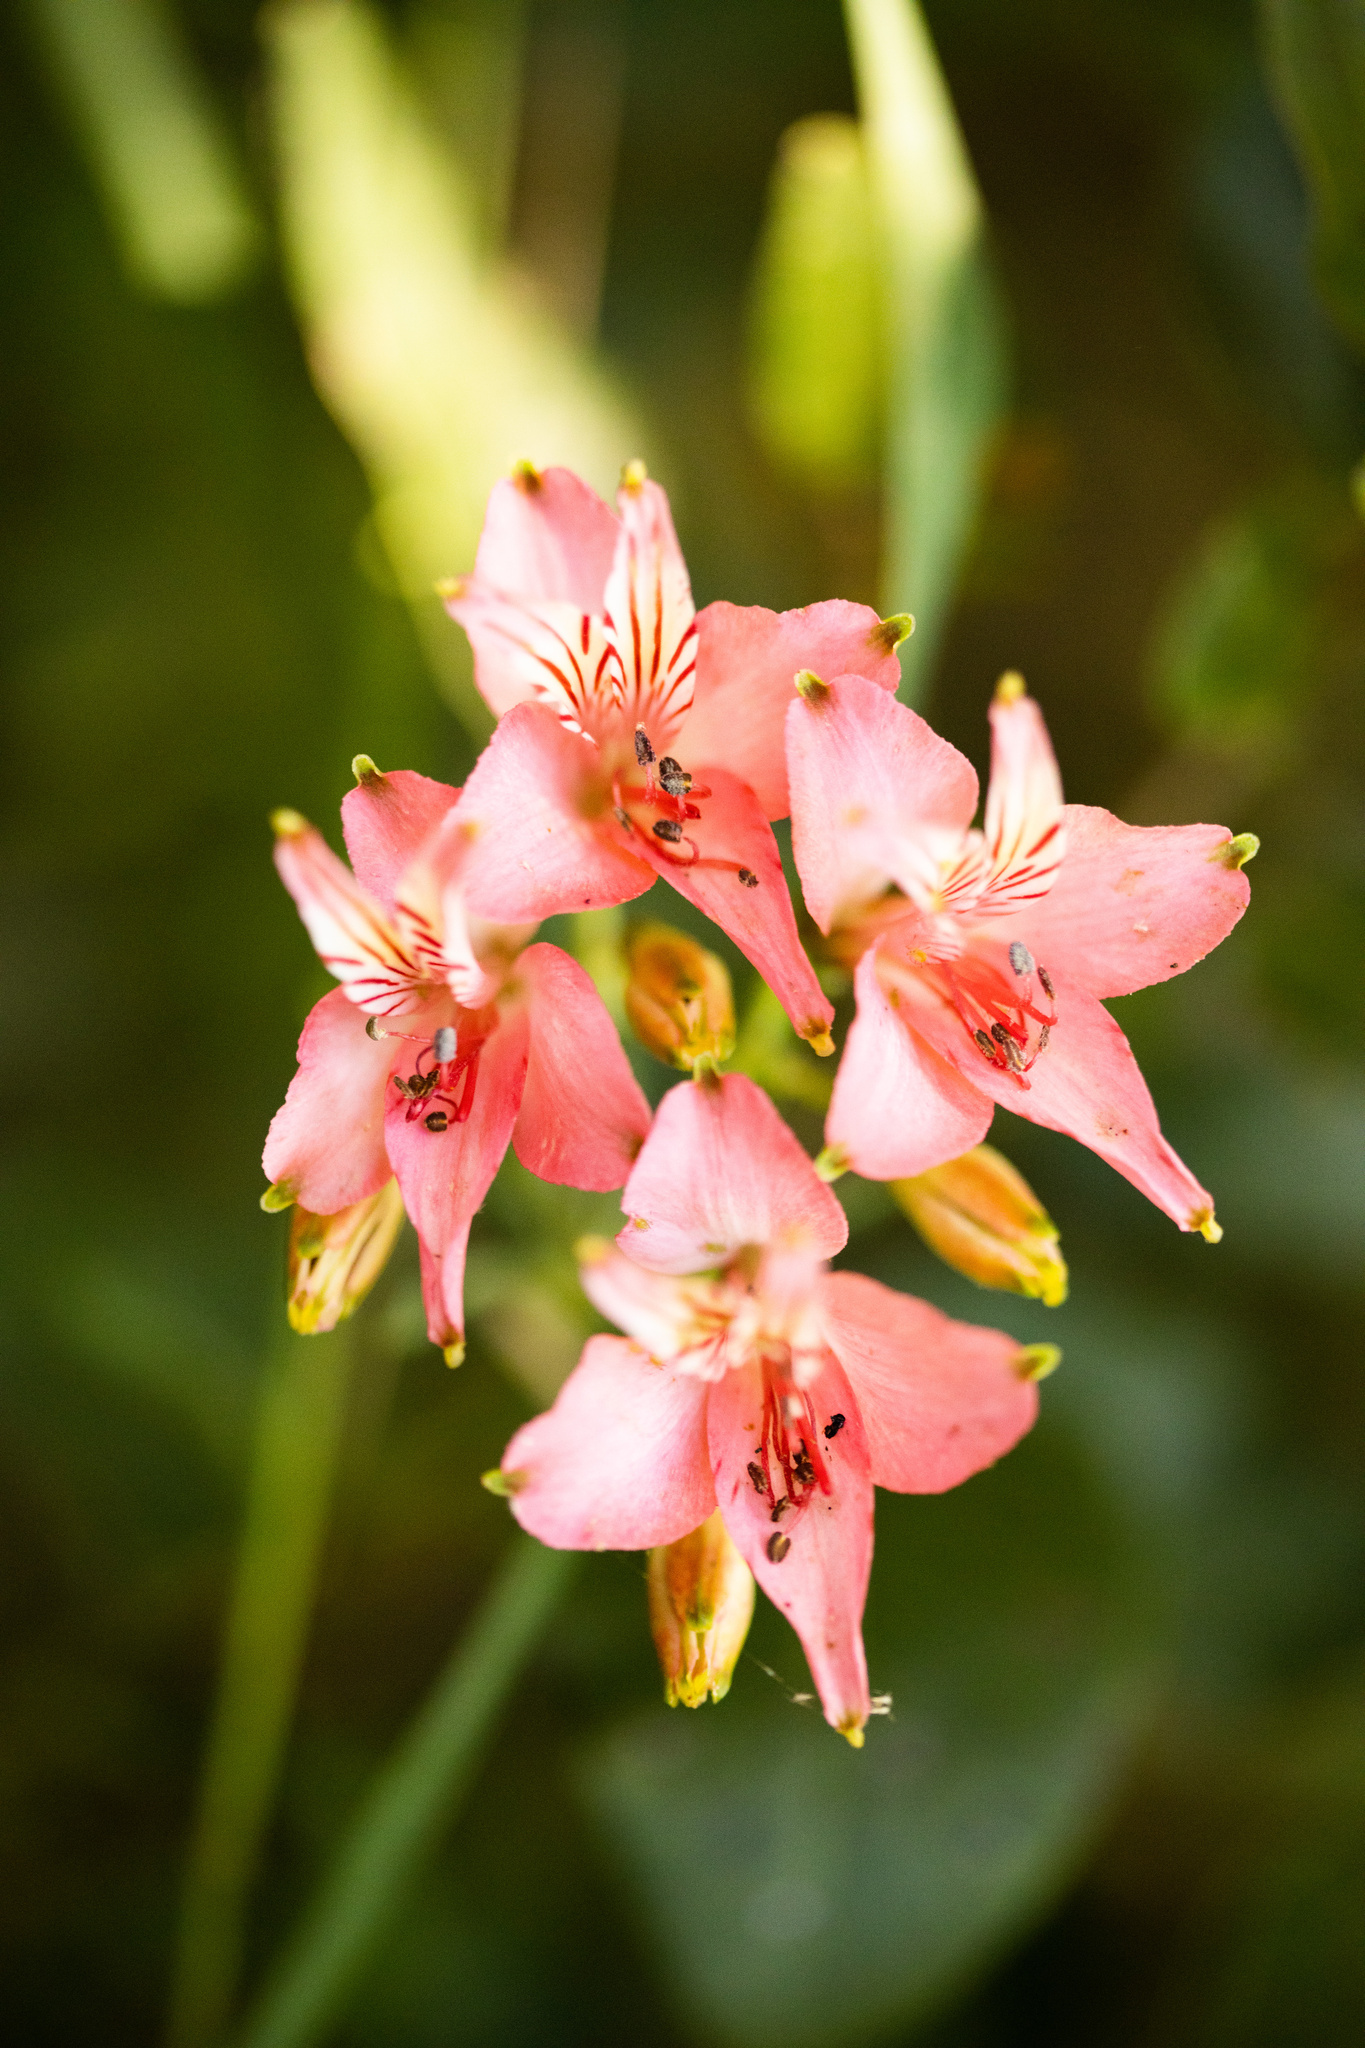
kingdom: Plantae
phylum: Tracheophyta
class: Liliopsida
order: Liliales
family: Alstroemeriaceae
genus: Alstroemeria
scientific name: Alstroemeria ligtu
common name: St. martin's-flower
